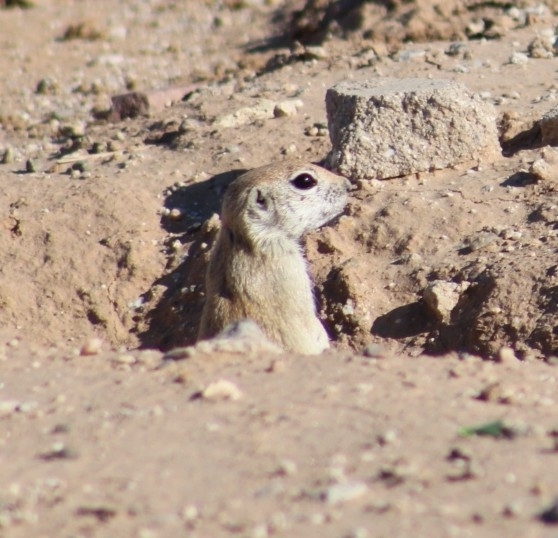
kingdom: Animalia
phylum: Chordata
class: Mammalia
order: Rodentia
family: Sciuridae
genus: Xerospermophilus
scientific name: Xerospermophilus tereticaudus
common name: Round-tailed ground squirrel
